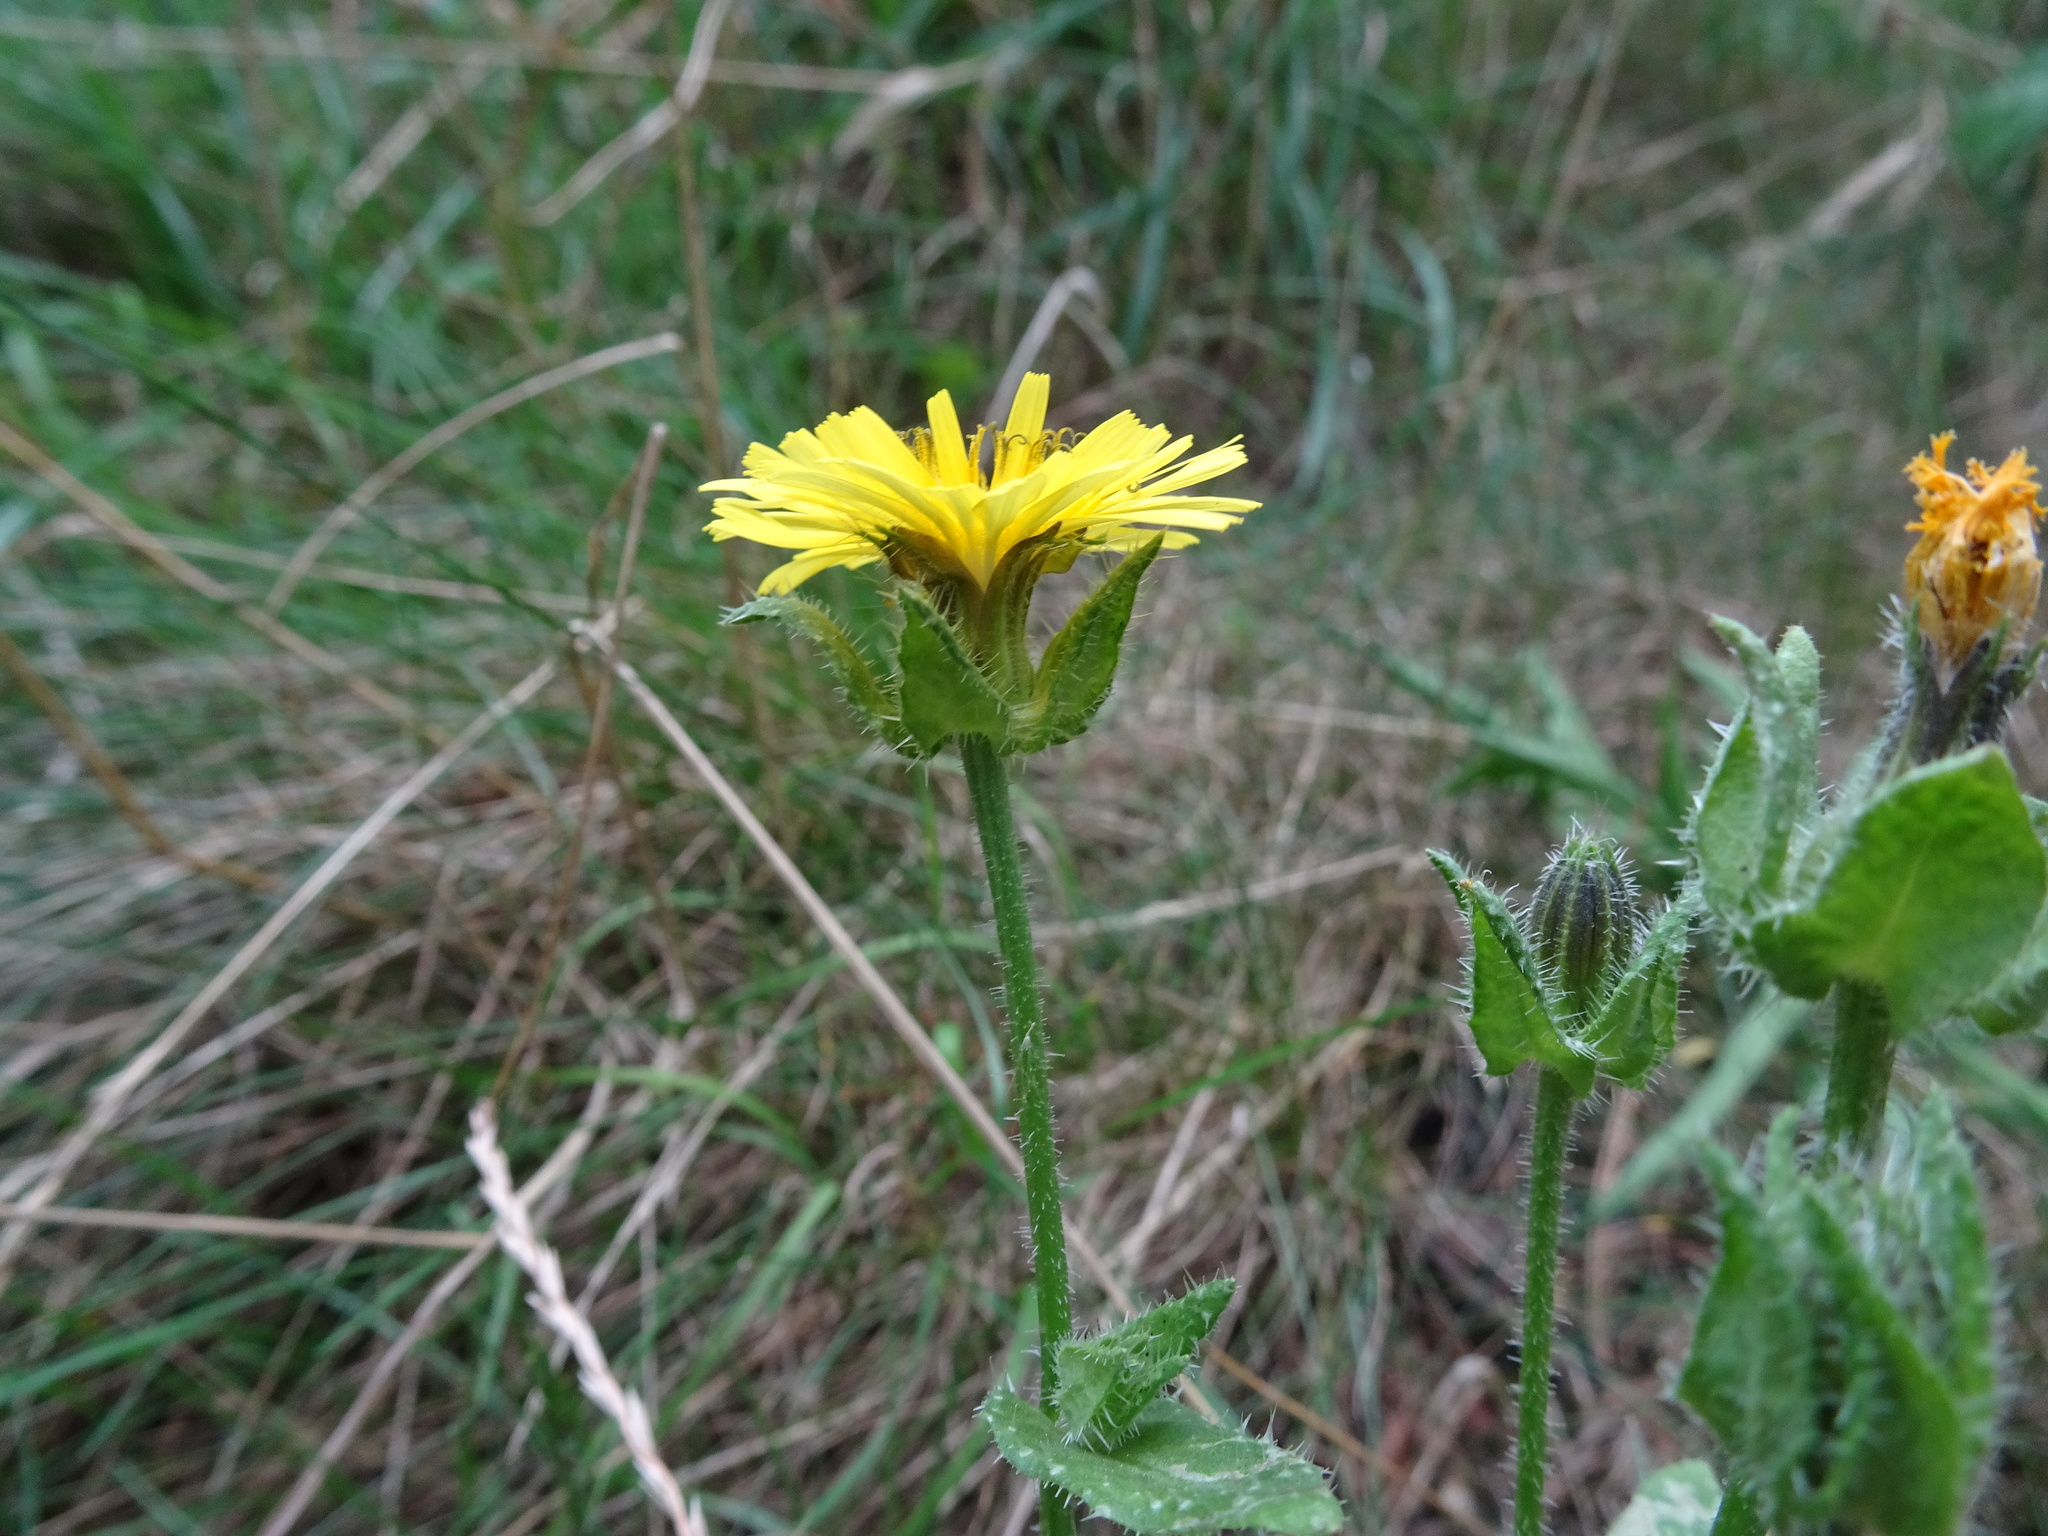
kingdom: Plantae
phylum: Tracheophyta
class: Magnoliopsida
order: Asterales
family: Asteraceae
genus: Helminthotheca
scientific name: Helminthotheca echioides
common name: Ox-tongue
